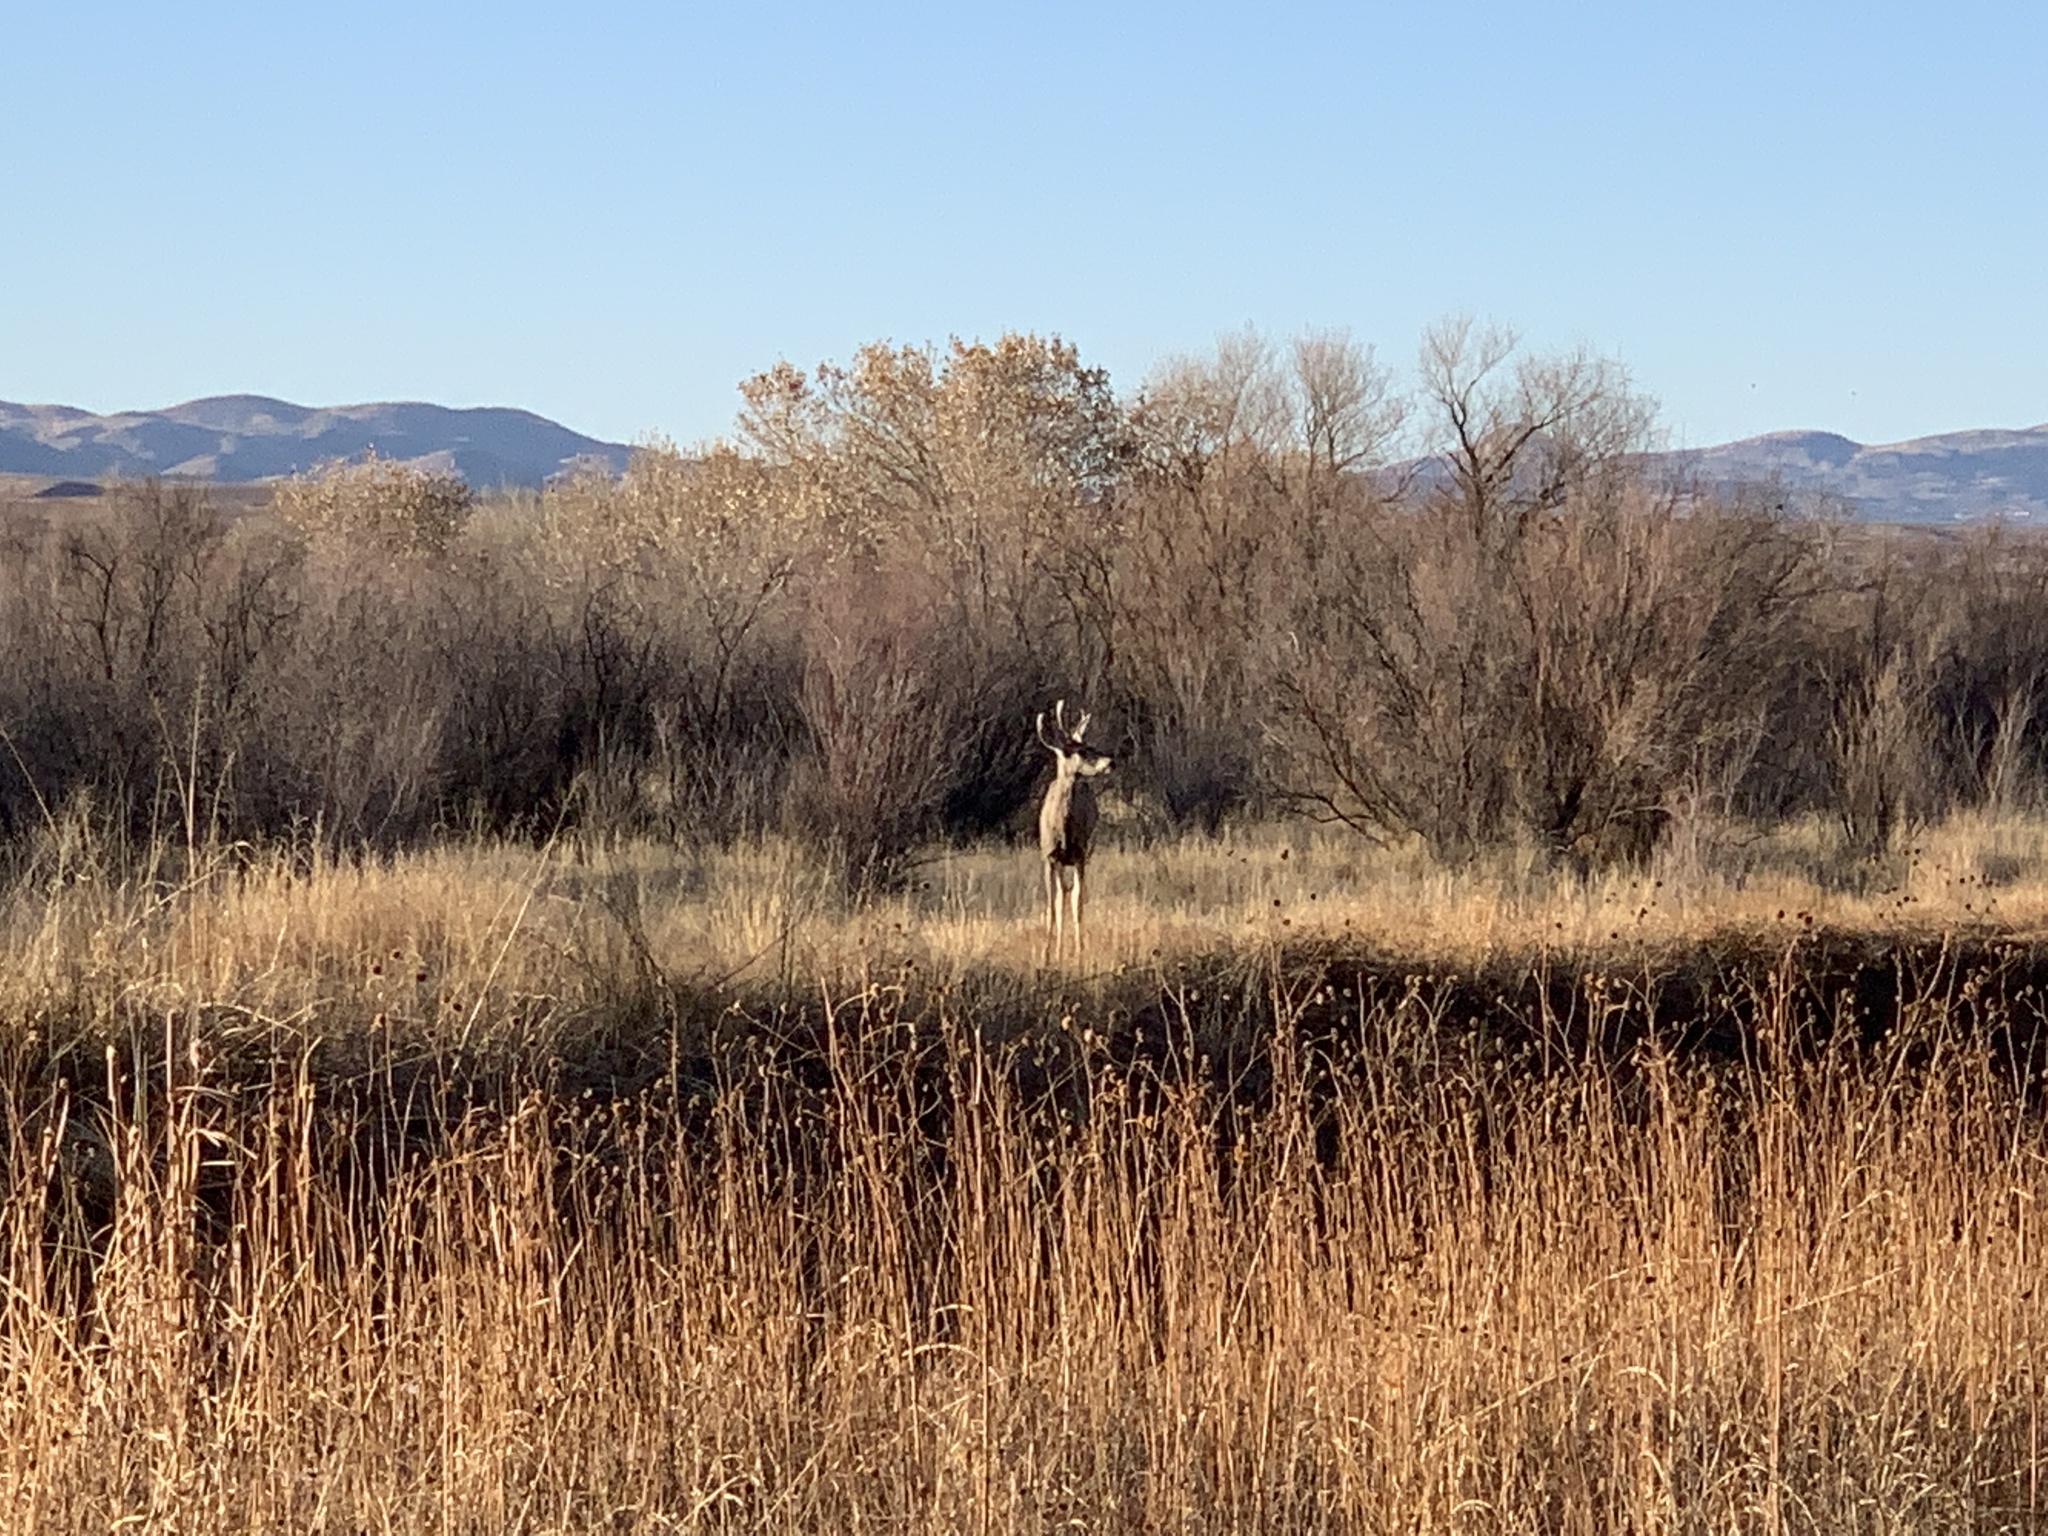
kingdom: Animalia
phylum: Chordata
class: Mammalia
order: Artiodactyla
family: Cervidae
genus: Odocoileus
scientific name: Odocoileus hemionus
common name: Mule deer
